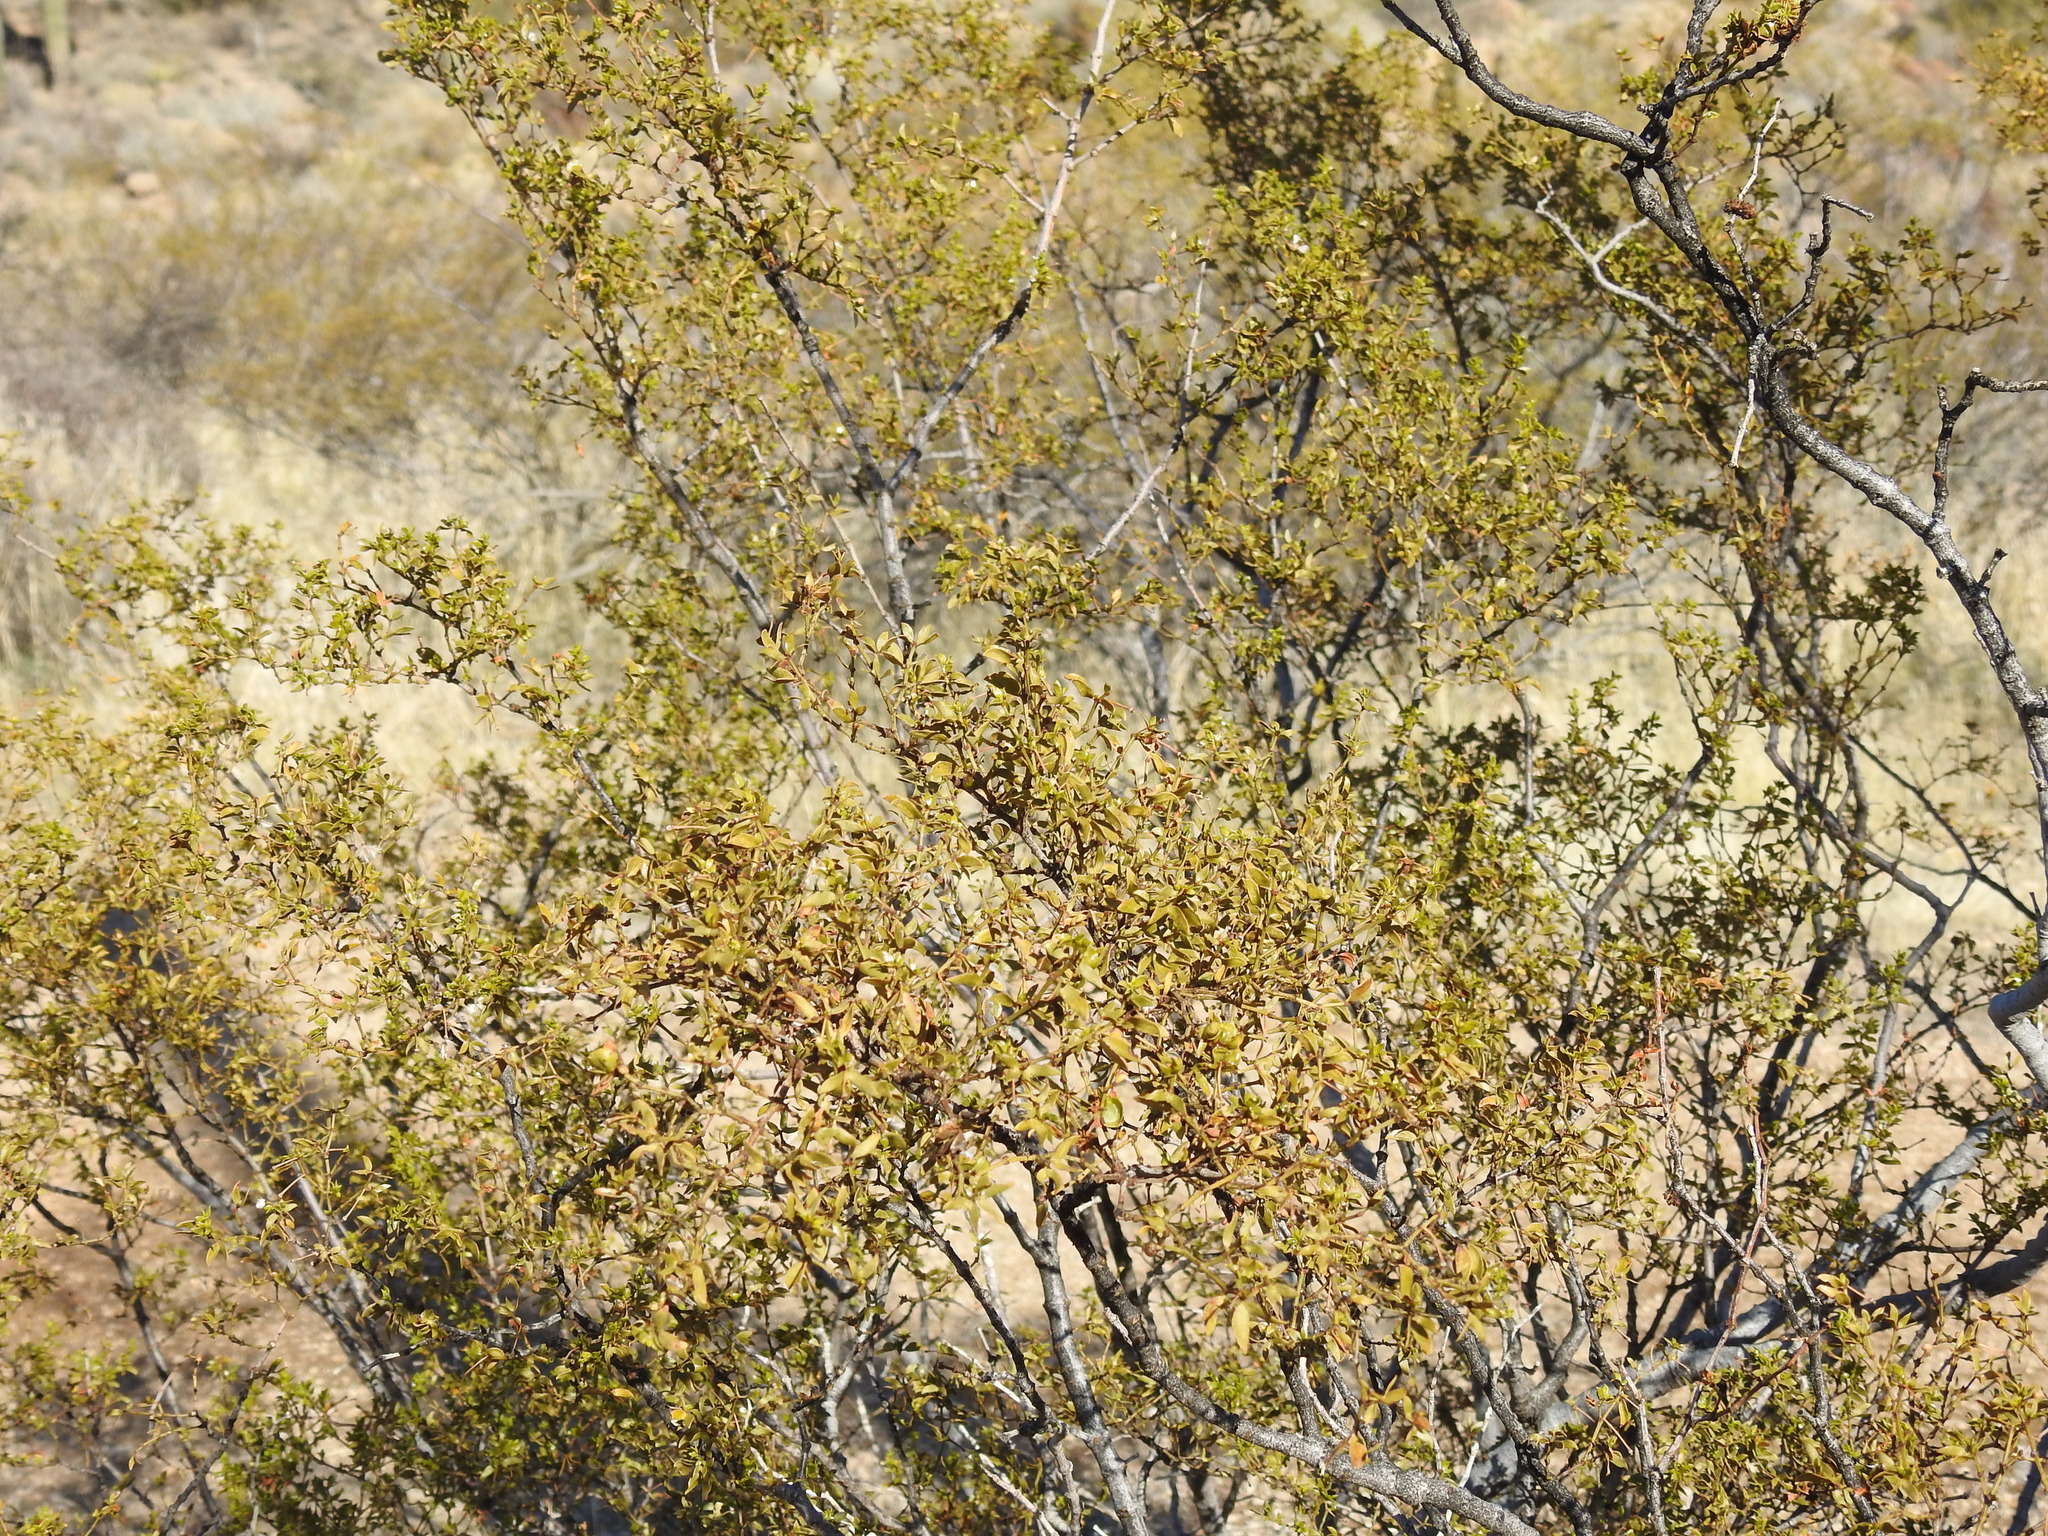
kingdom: Plantae
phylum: Tracheophyta
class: Magnoliopsida
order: Zygophyllales
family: Zygophyllaceae
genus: Larrea
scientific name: Larrea tridentata
